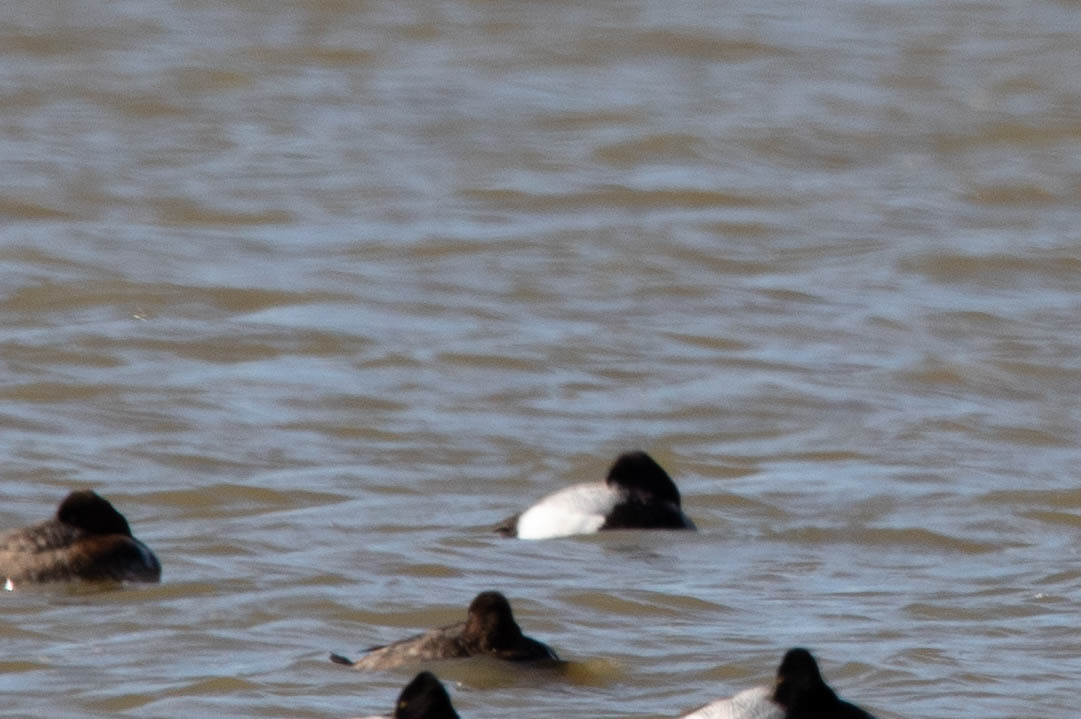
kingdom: Animalia
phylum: Chordata
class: Aves
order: Anseriformes
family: Anatidae
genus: Aythya
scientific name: Aythya affinis
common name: Lesser scaup
